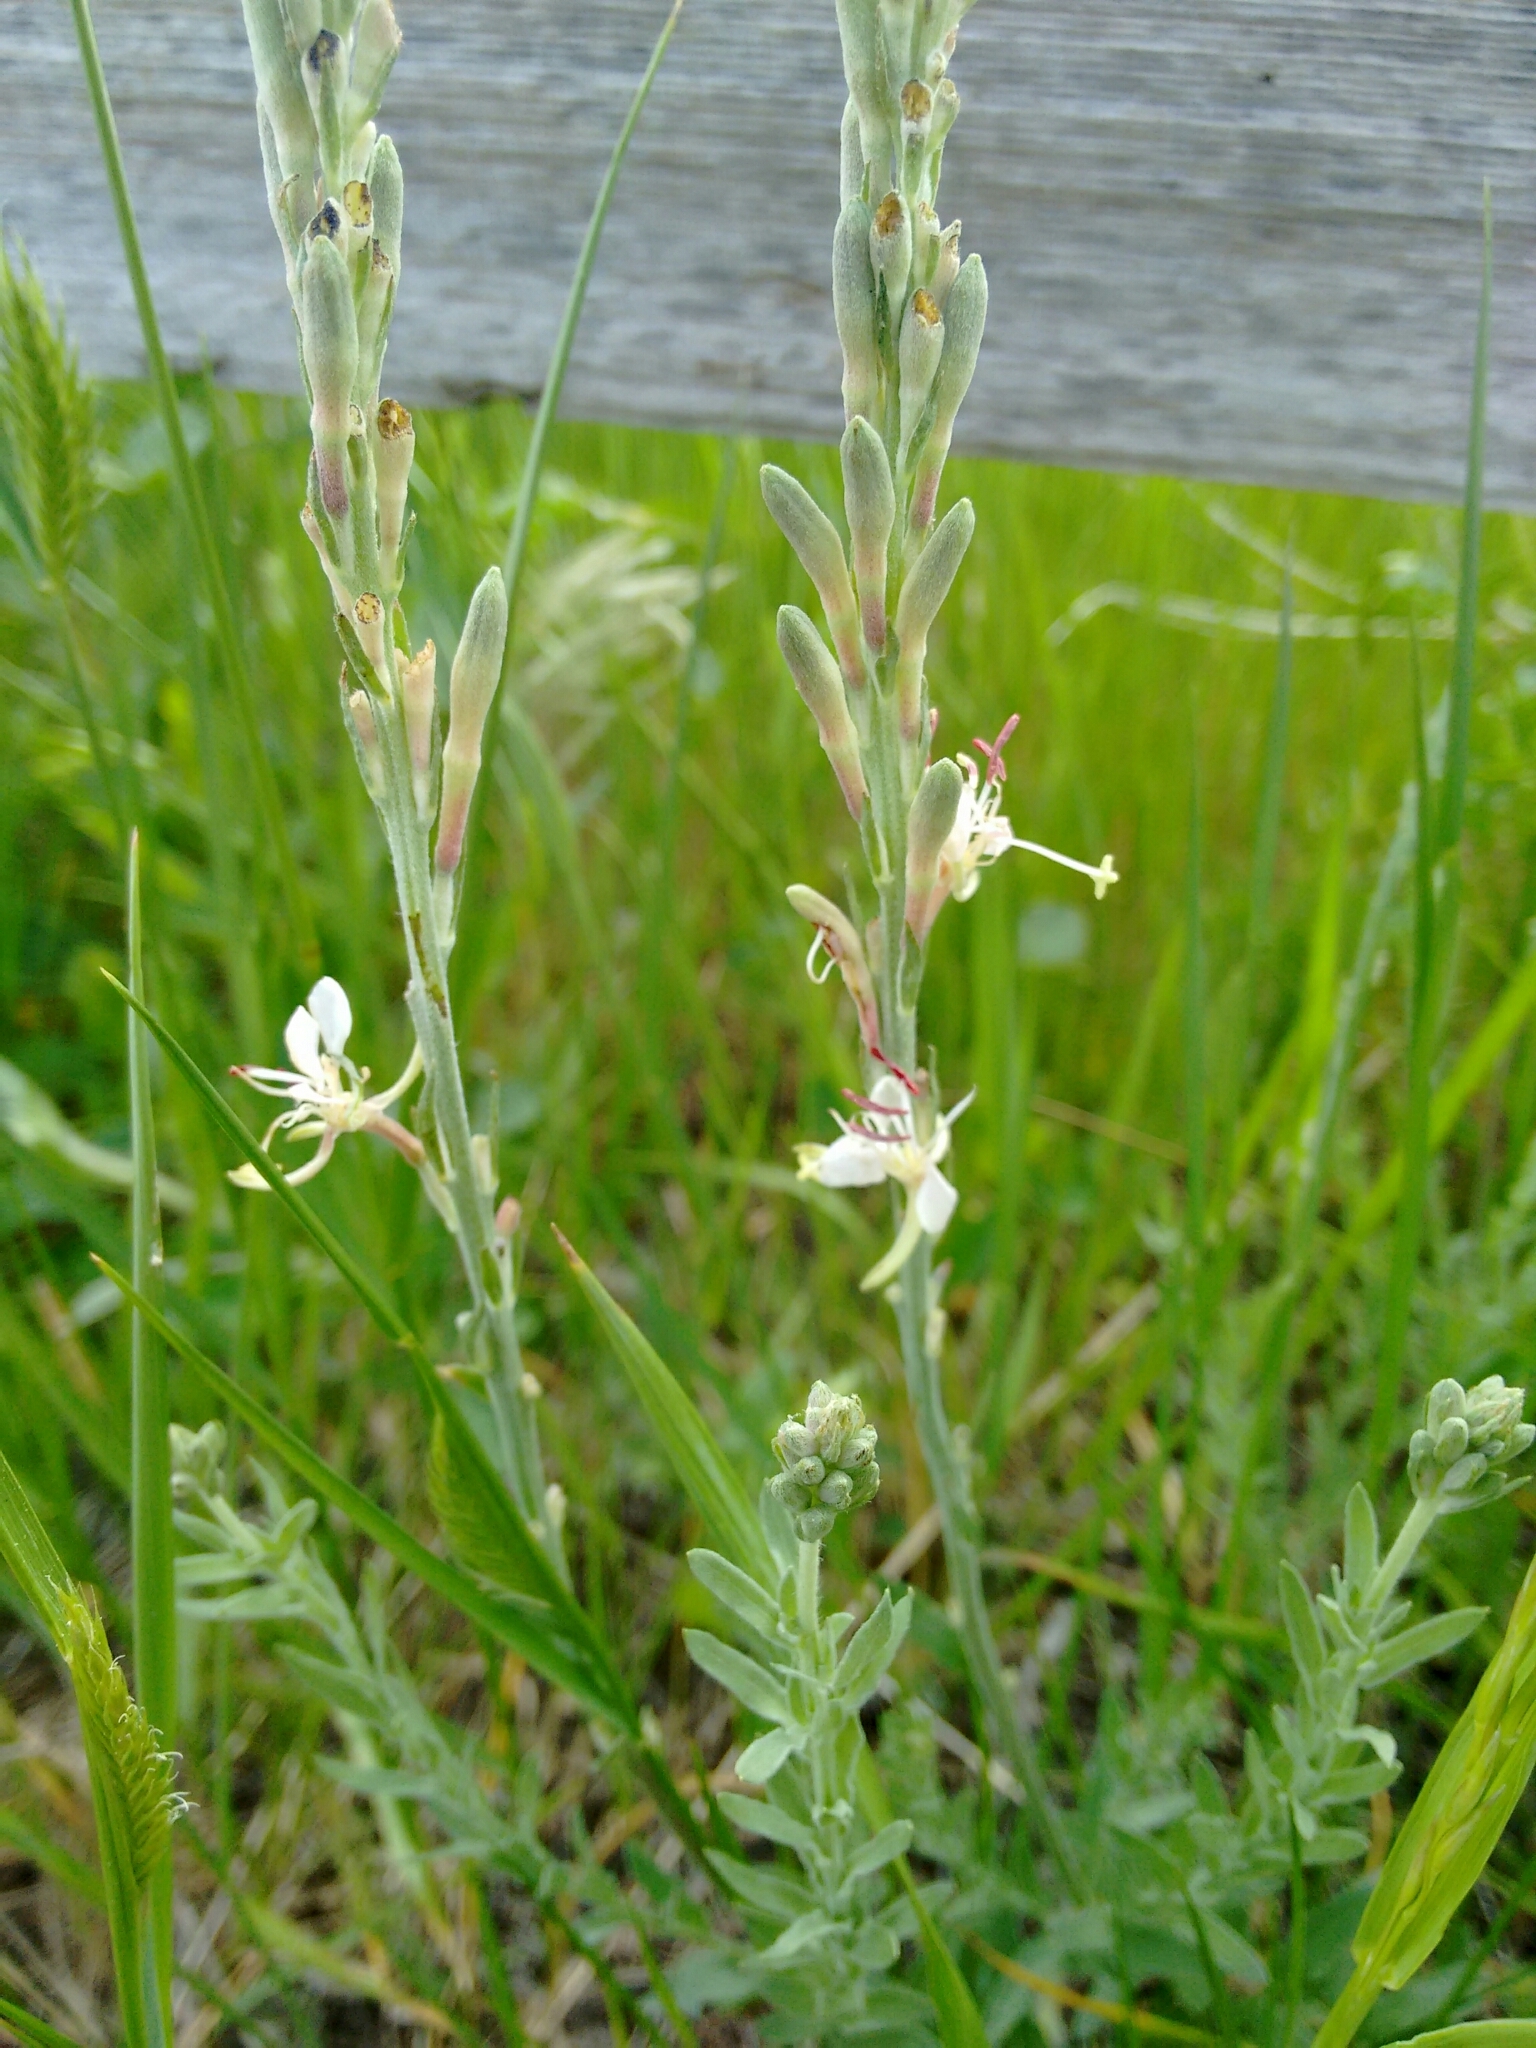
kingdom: Plantae
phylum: Tracheophyta
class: Magnoliopsida
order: Myrtales
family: Onagraceae
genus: Oenothera
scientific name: Oenothera suffrutescens
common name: Scarlet beeblossom
